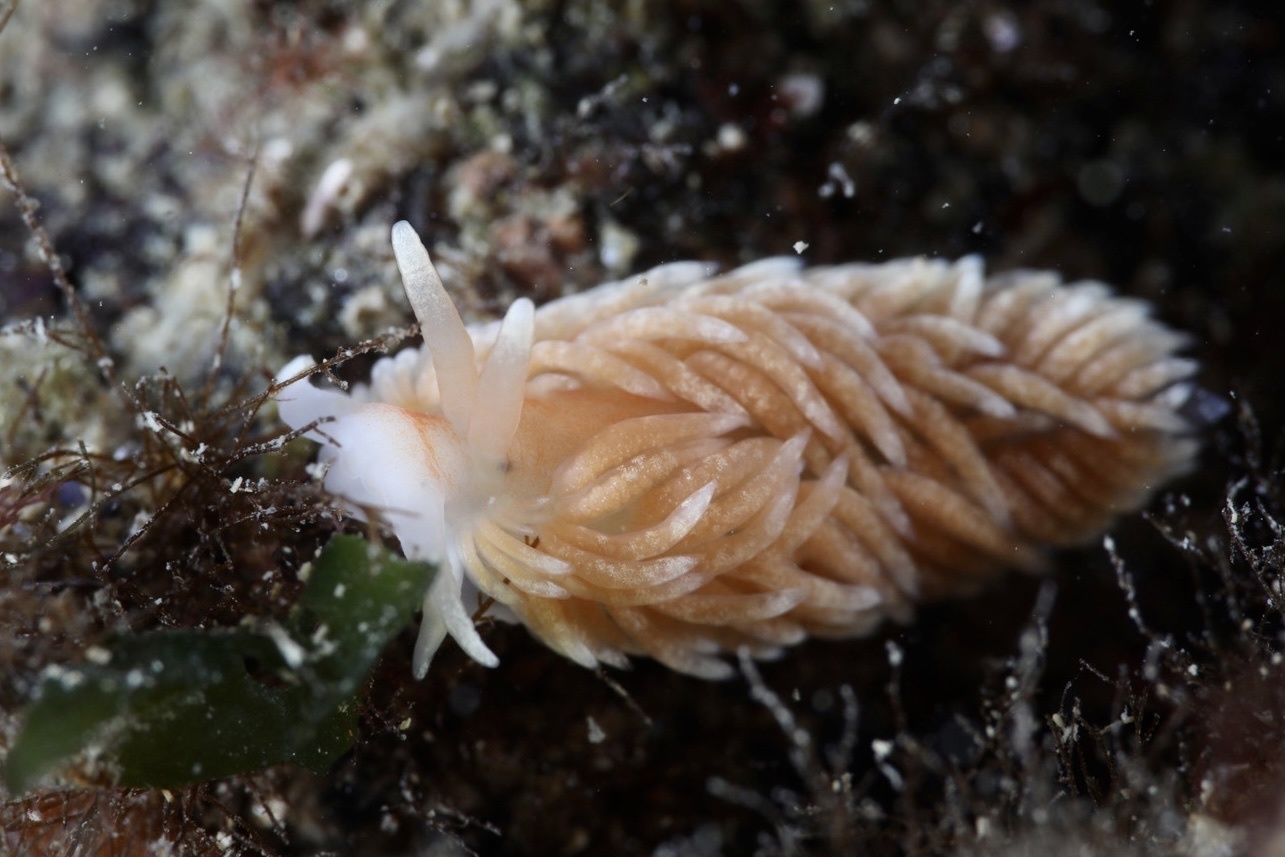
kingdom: Animalia
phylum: Mollusca
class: Gastropoda
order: Nudibranchia
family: Aeolidiidae
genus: Aeolidiella
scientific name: Aeolidiella glauca
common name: Orange-brown aeolid
